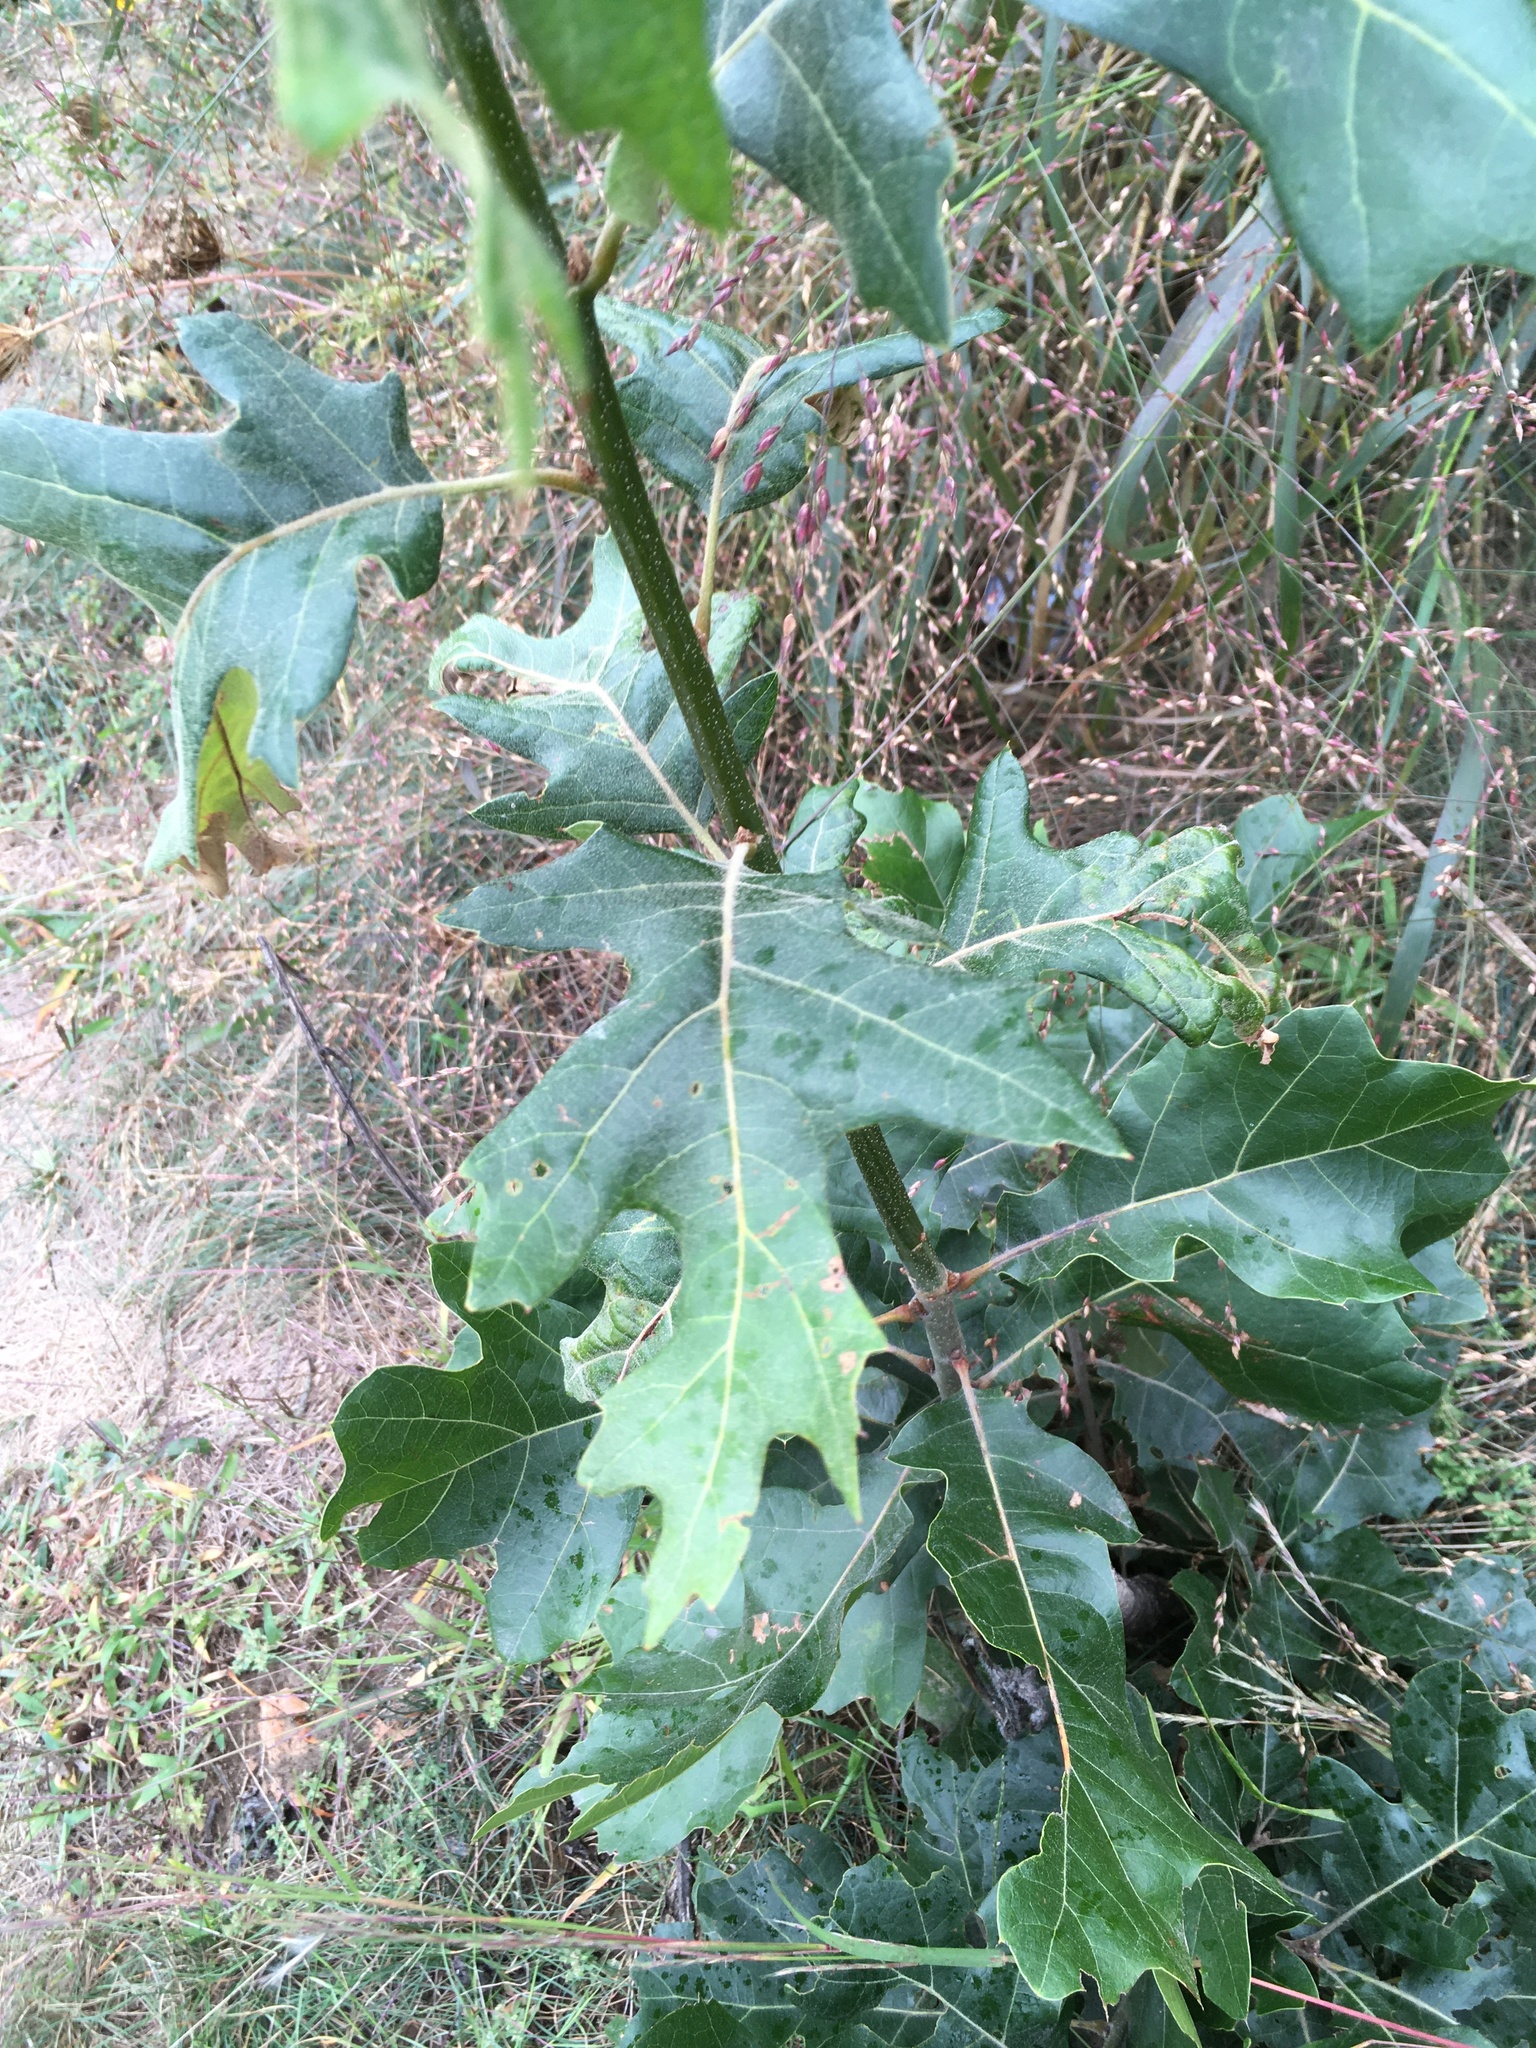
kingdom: Plantae
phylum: Tracheophyta
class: Magnoliopsida
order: Fagales
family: Fagaceae
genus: Quercus
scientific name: Quercus velutina
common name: Black oak
